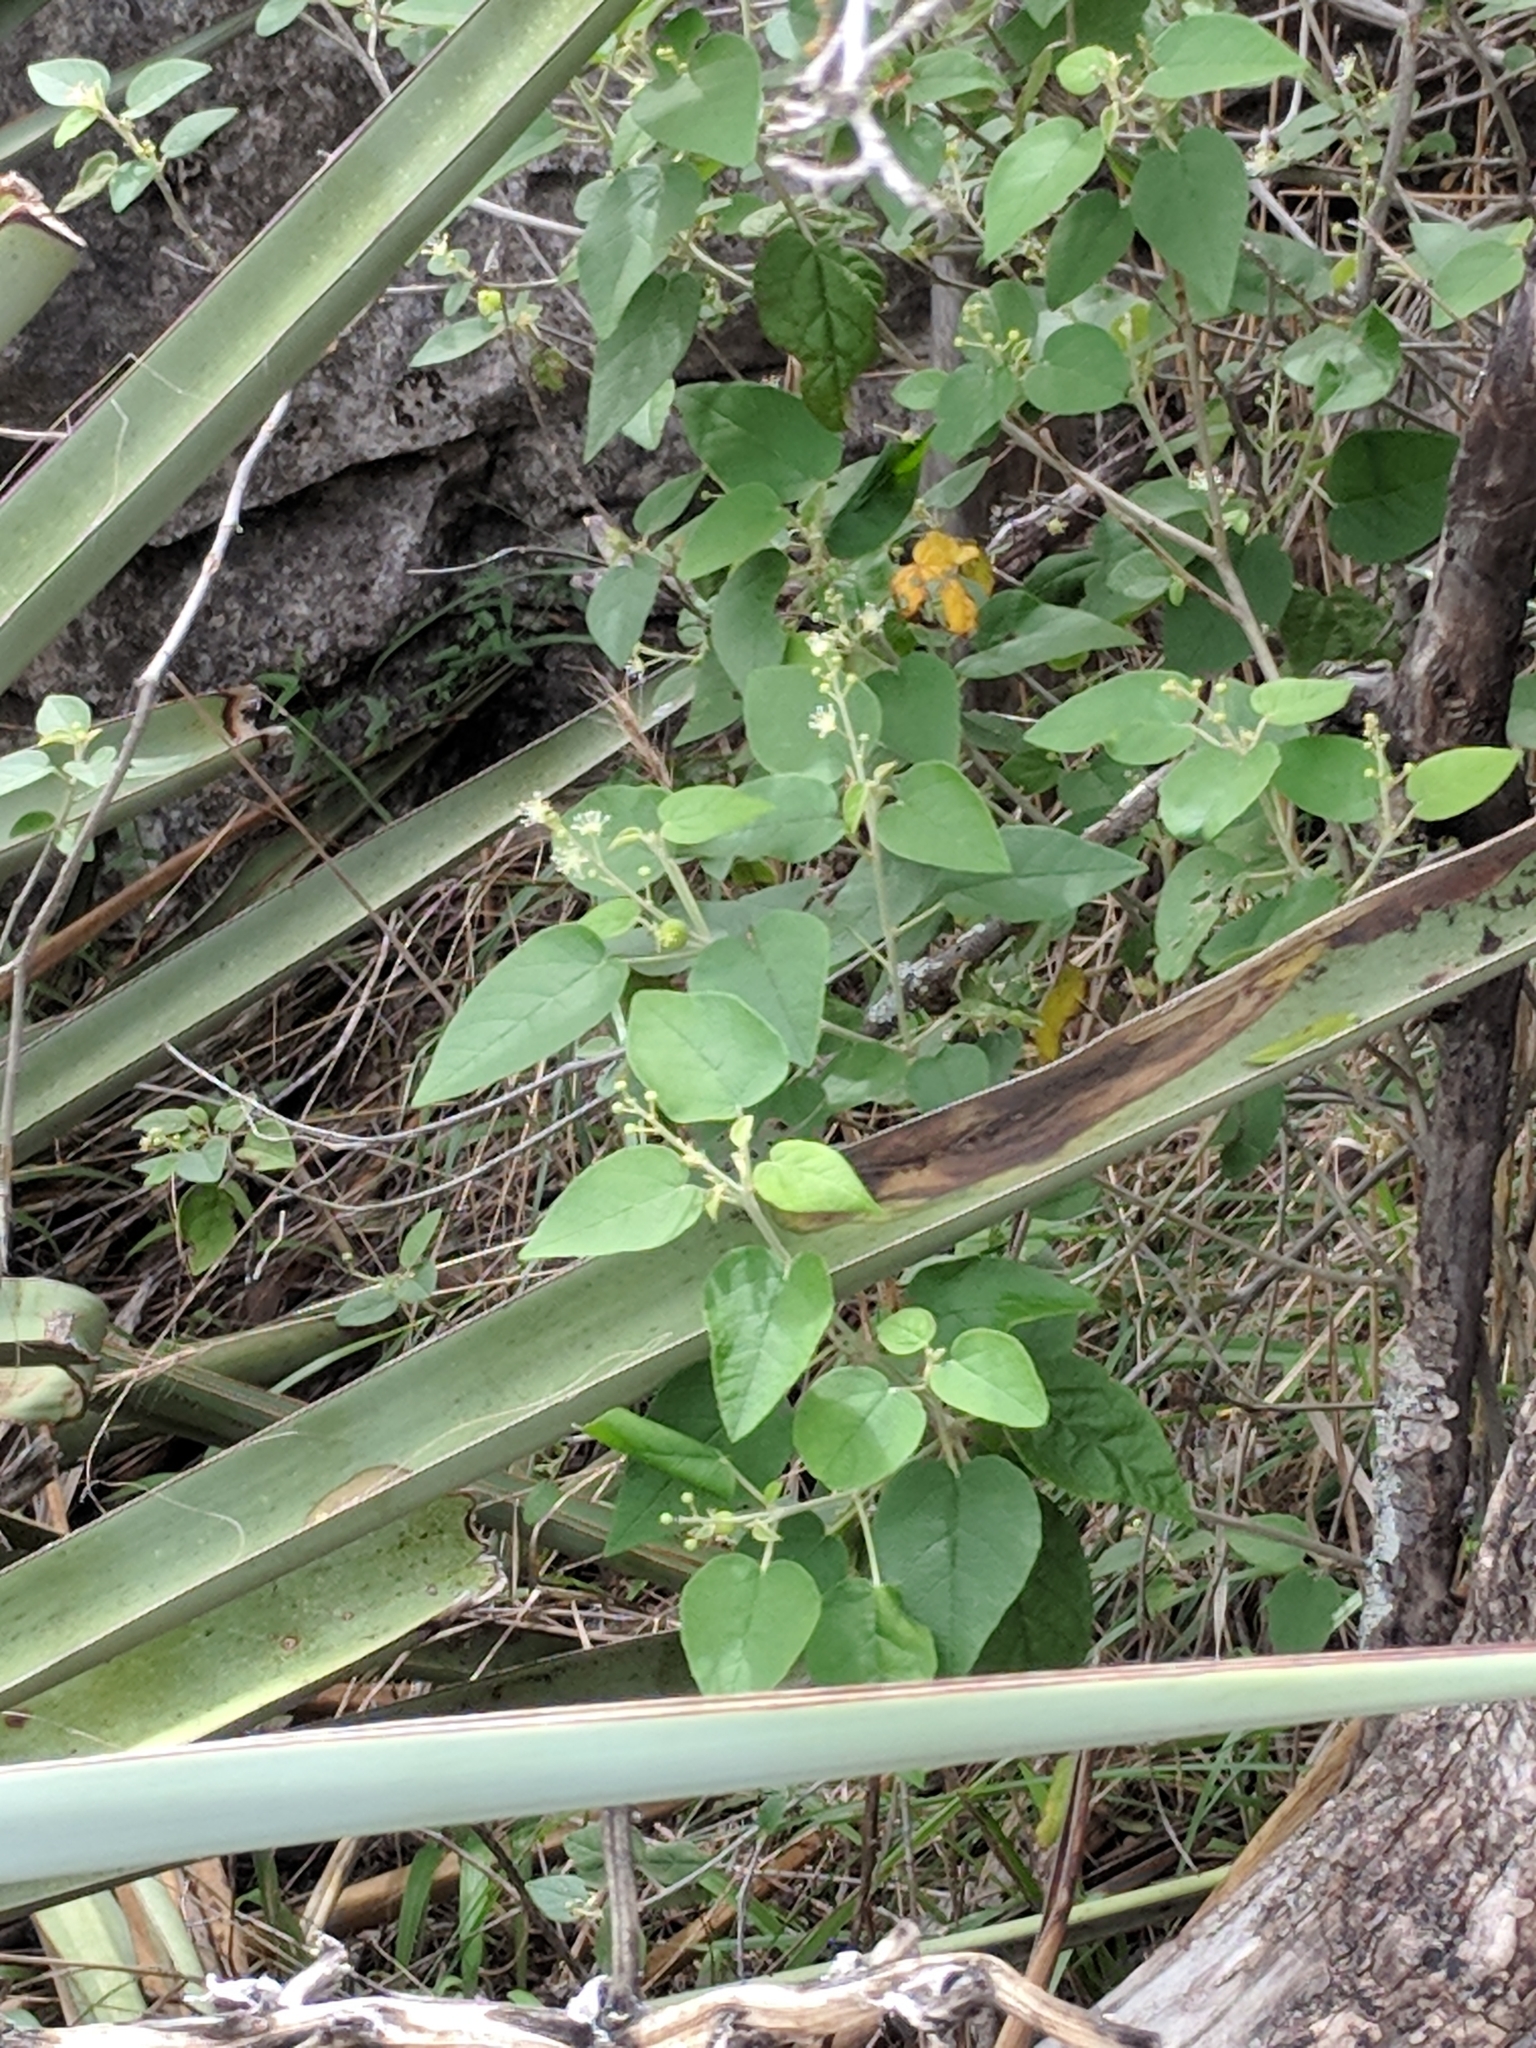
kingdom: Plantae
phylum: Tracheophyta
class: Magnoliopsida
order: Malpighiales
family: Euphorbiaceae
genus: Croton
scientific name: Croton fruticulosus
